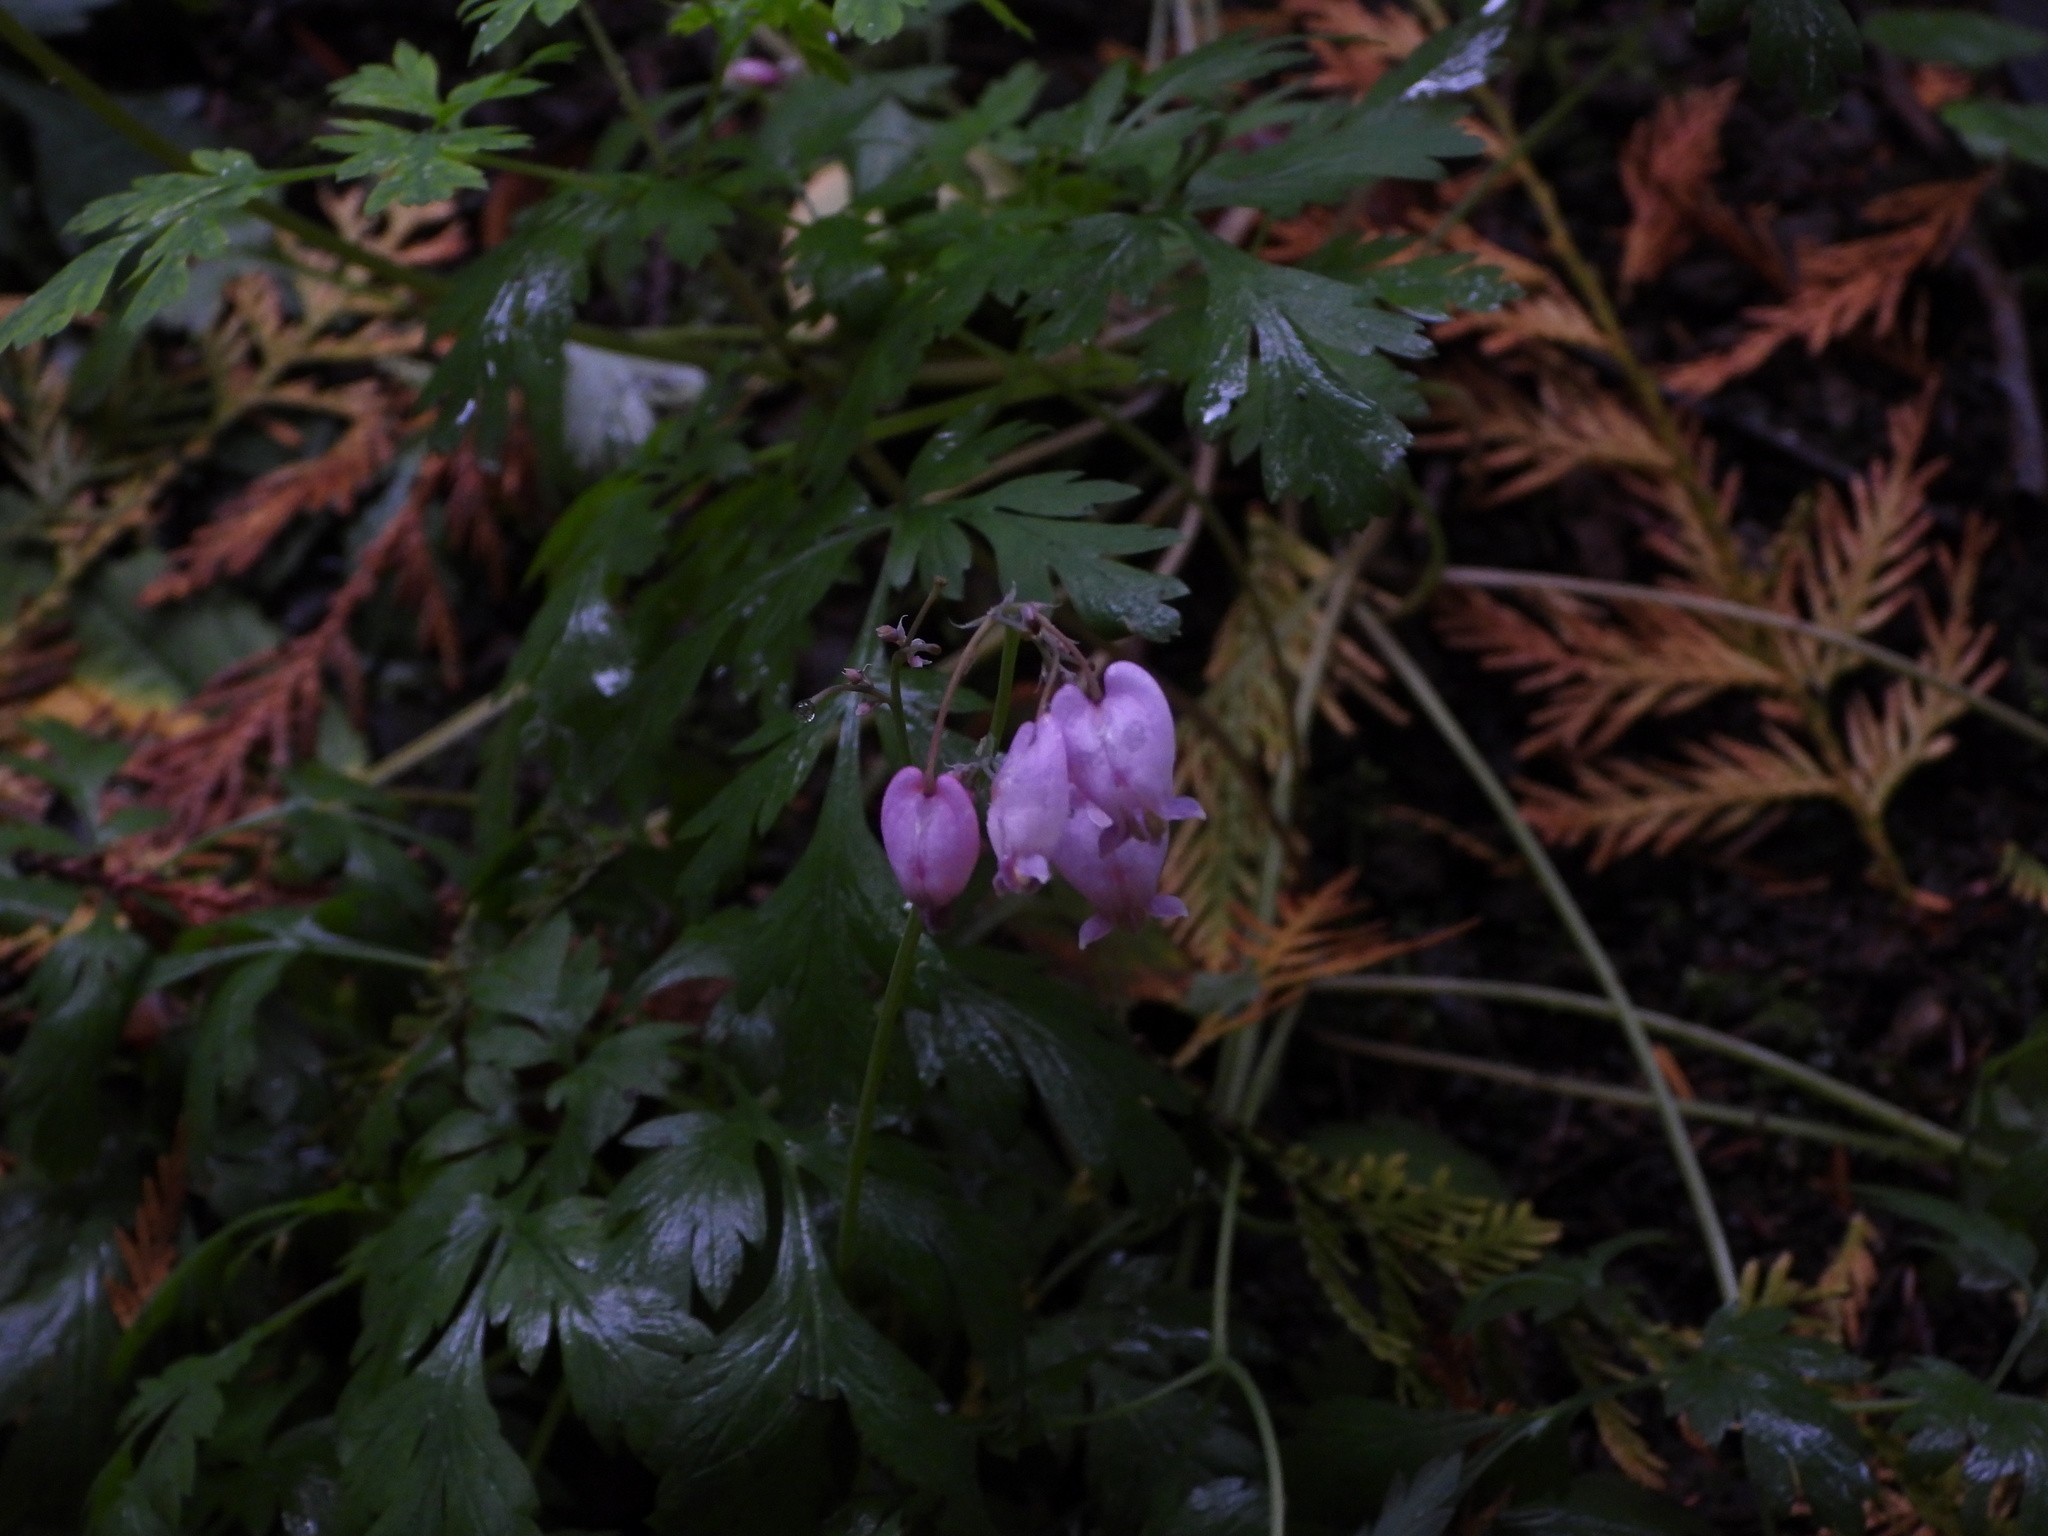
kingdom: Plantae
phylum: Tracheophyta
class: Magnoliopsida
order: Ranunculales
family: Papaveraceae
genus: Dicentra
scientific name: Dicentra formosa
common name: Bleeding-heart
